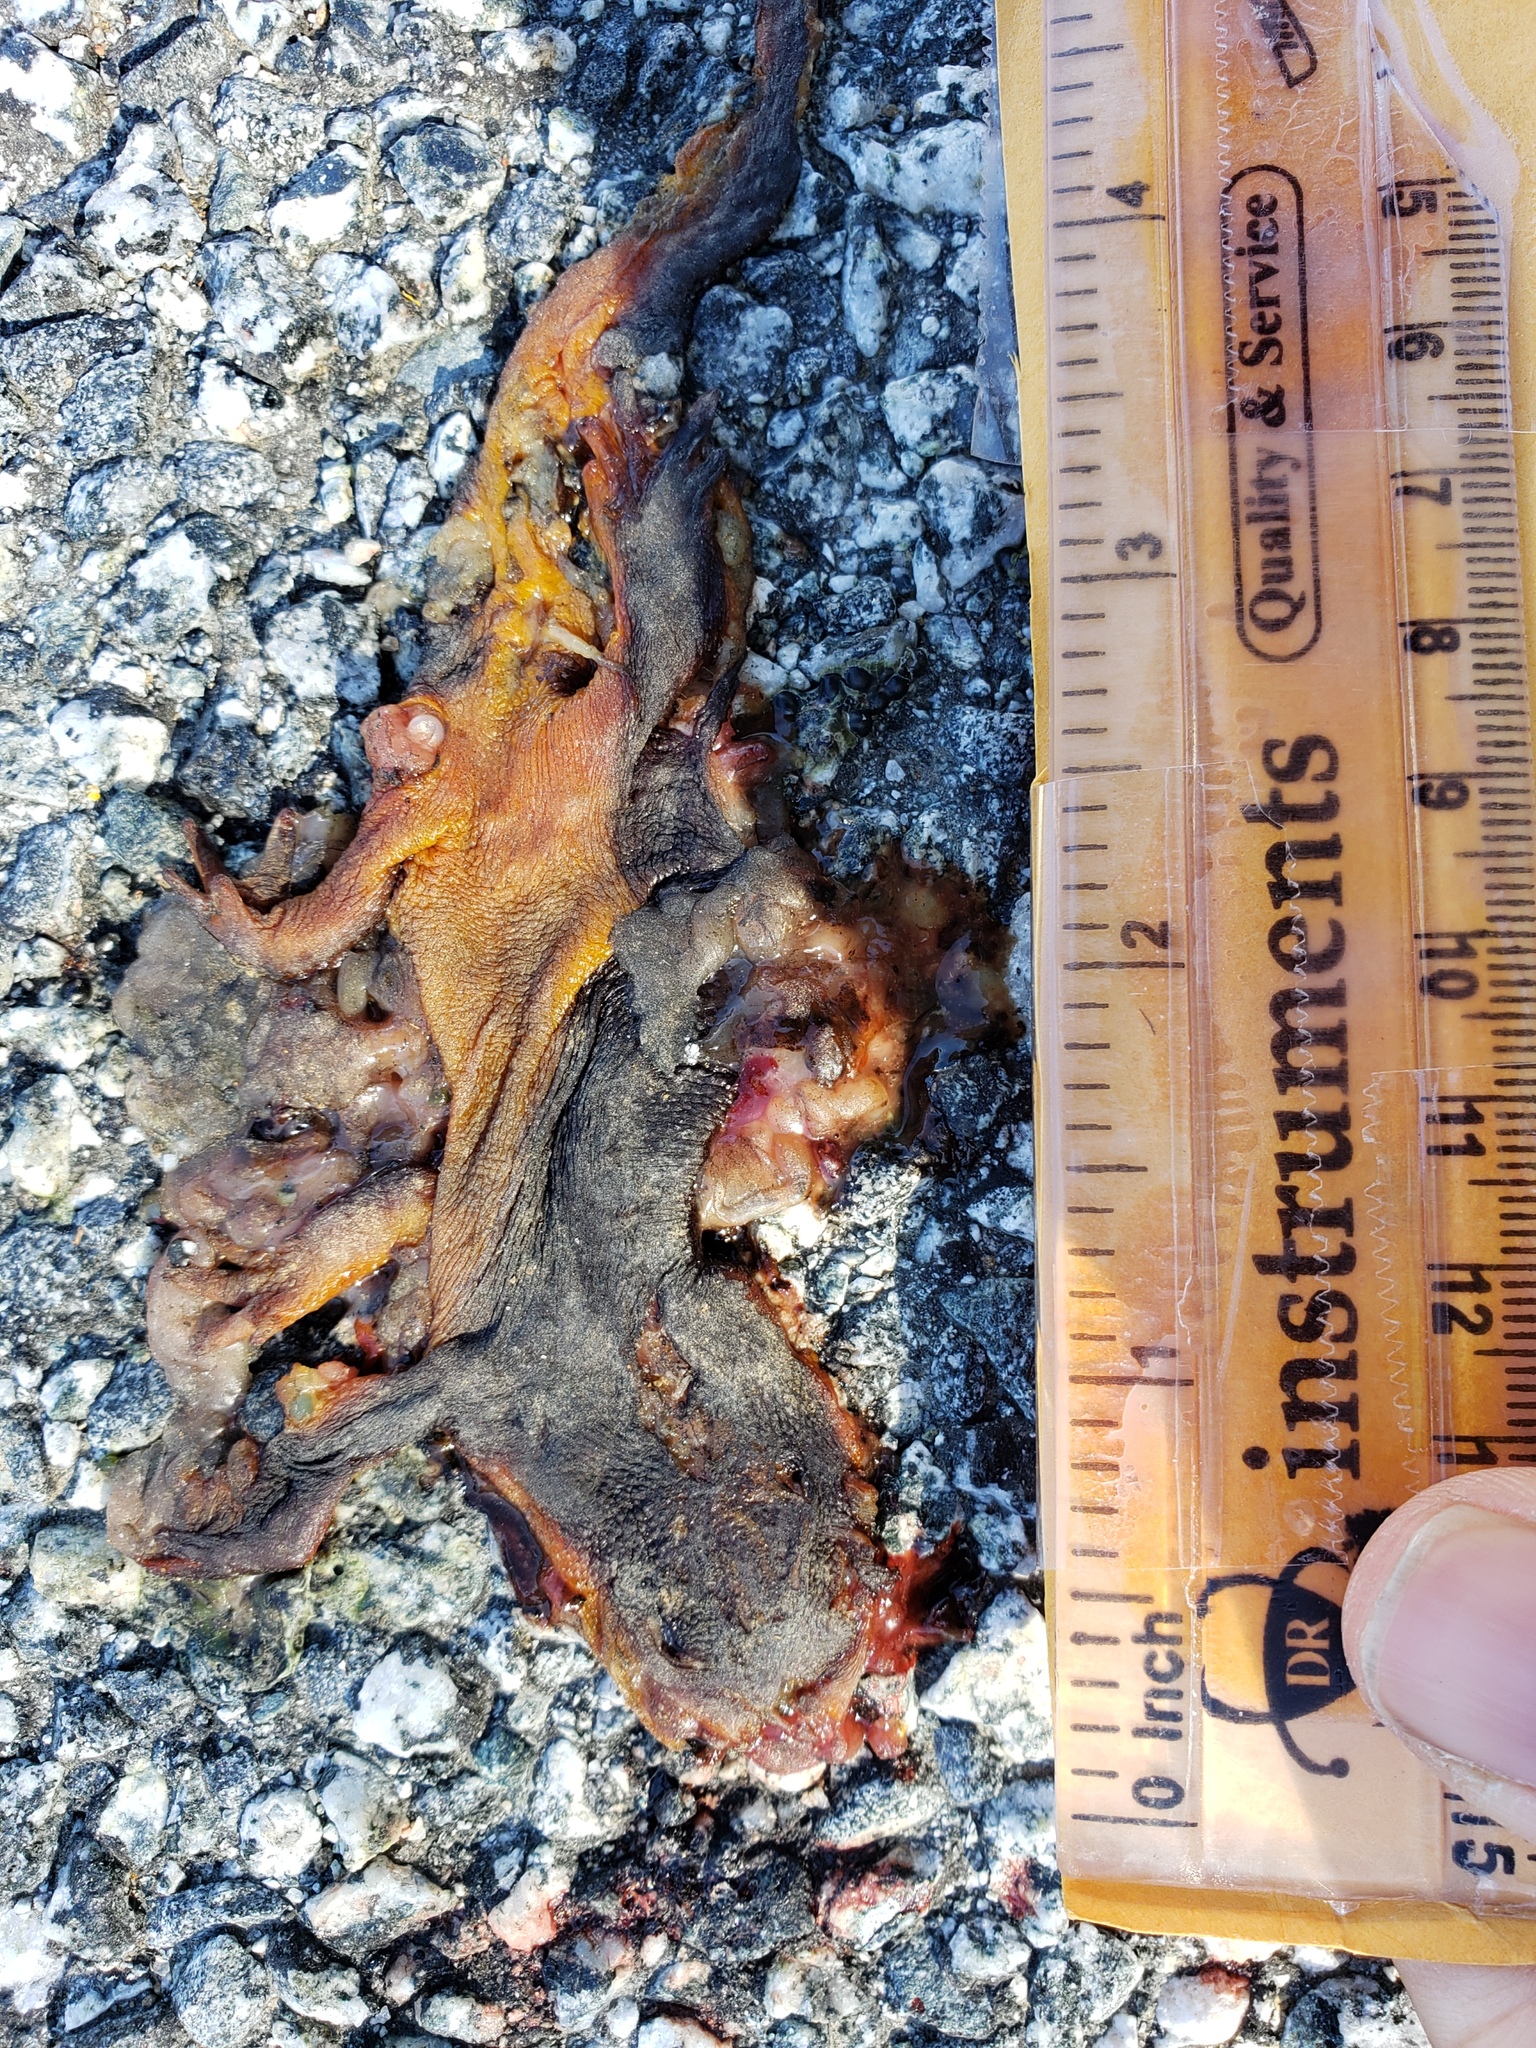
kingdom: Animalia
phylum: Chordata
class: Amphibia
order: Caudata
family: Salamandridae
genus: Taricha
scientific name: Taricha
